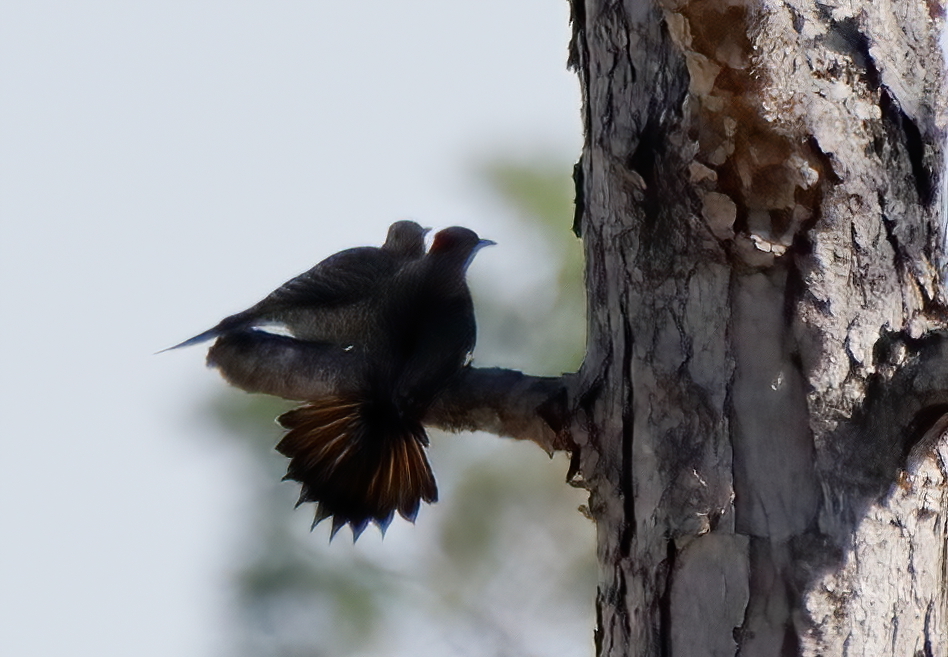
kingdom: Animalia
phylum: Chordata
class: Aves
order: Piciformes
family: Picidae
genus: Colaptes
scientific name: Colaptes auratus
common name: Northern flicker
